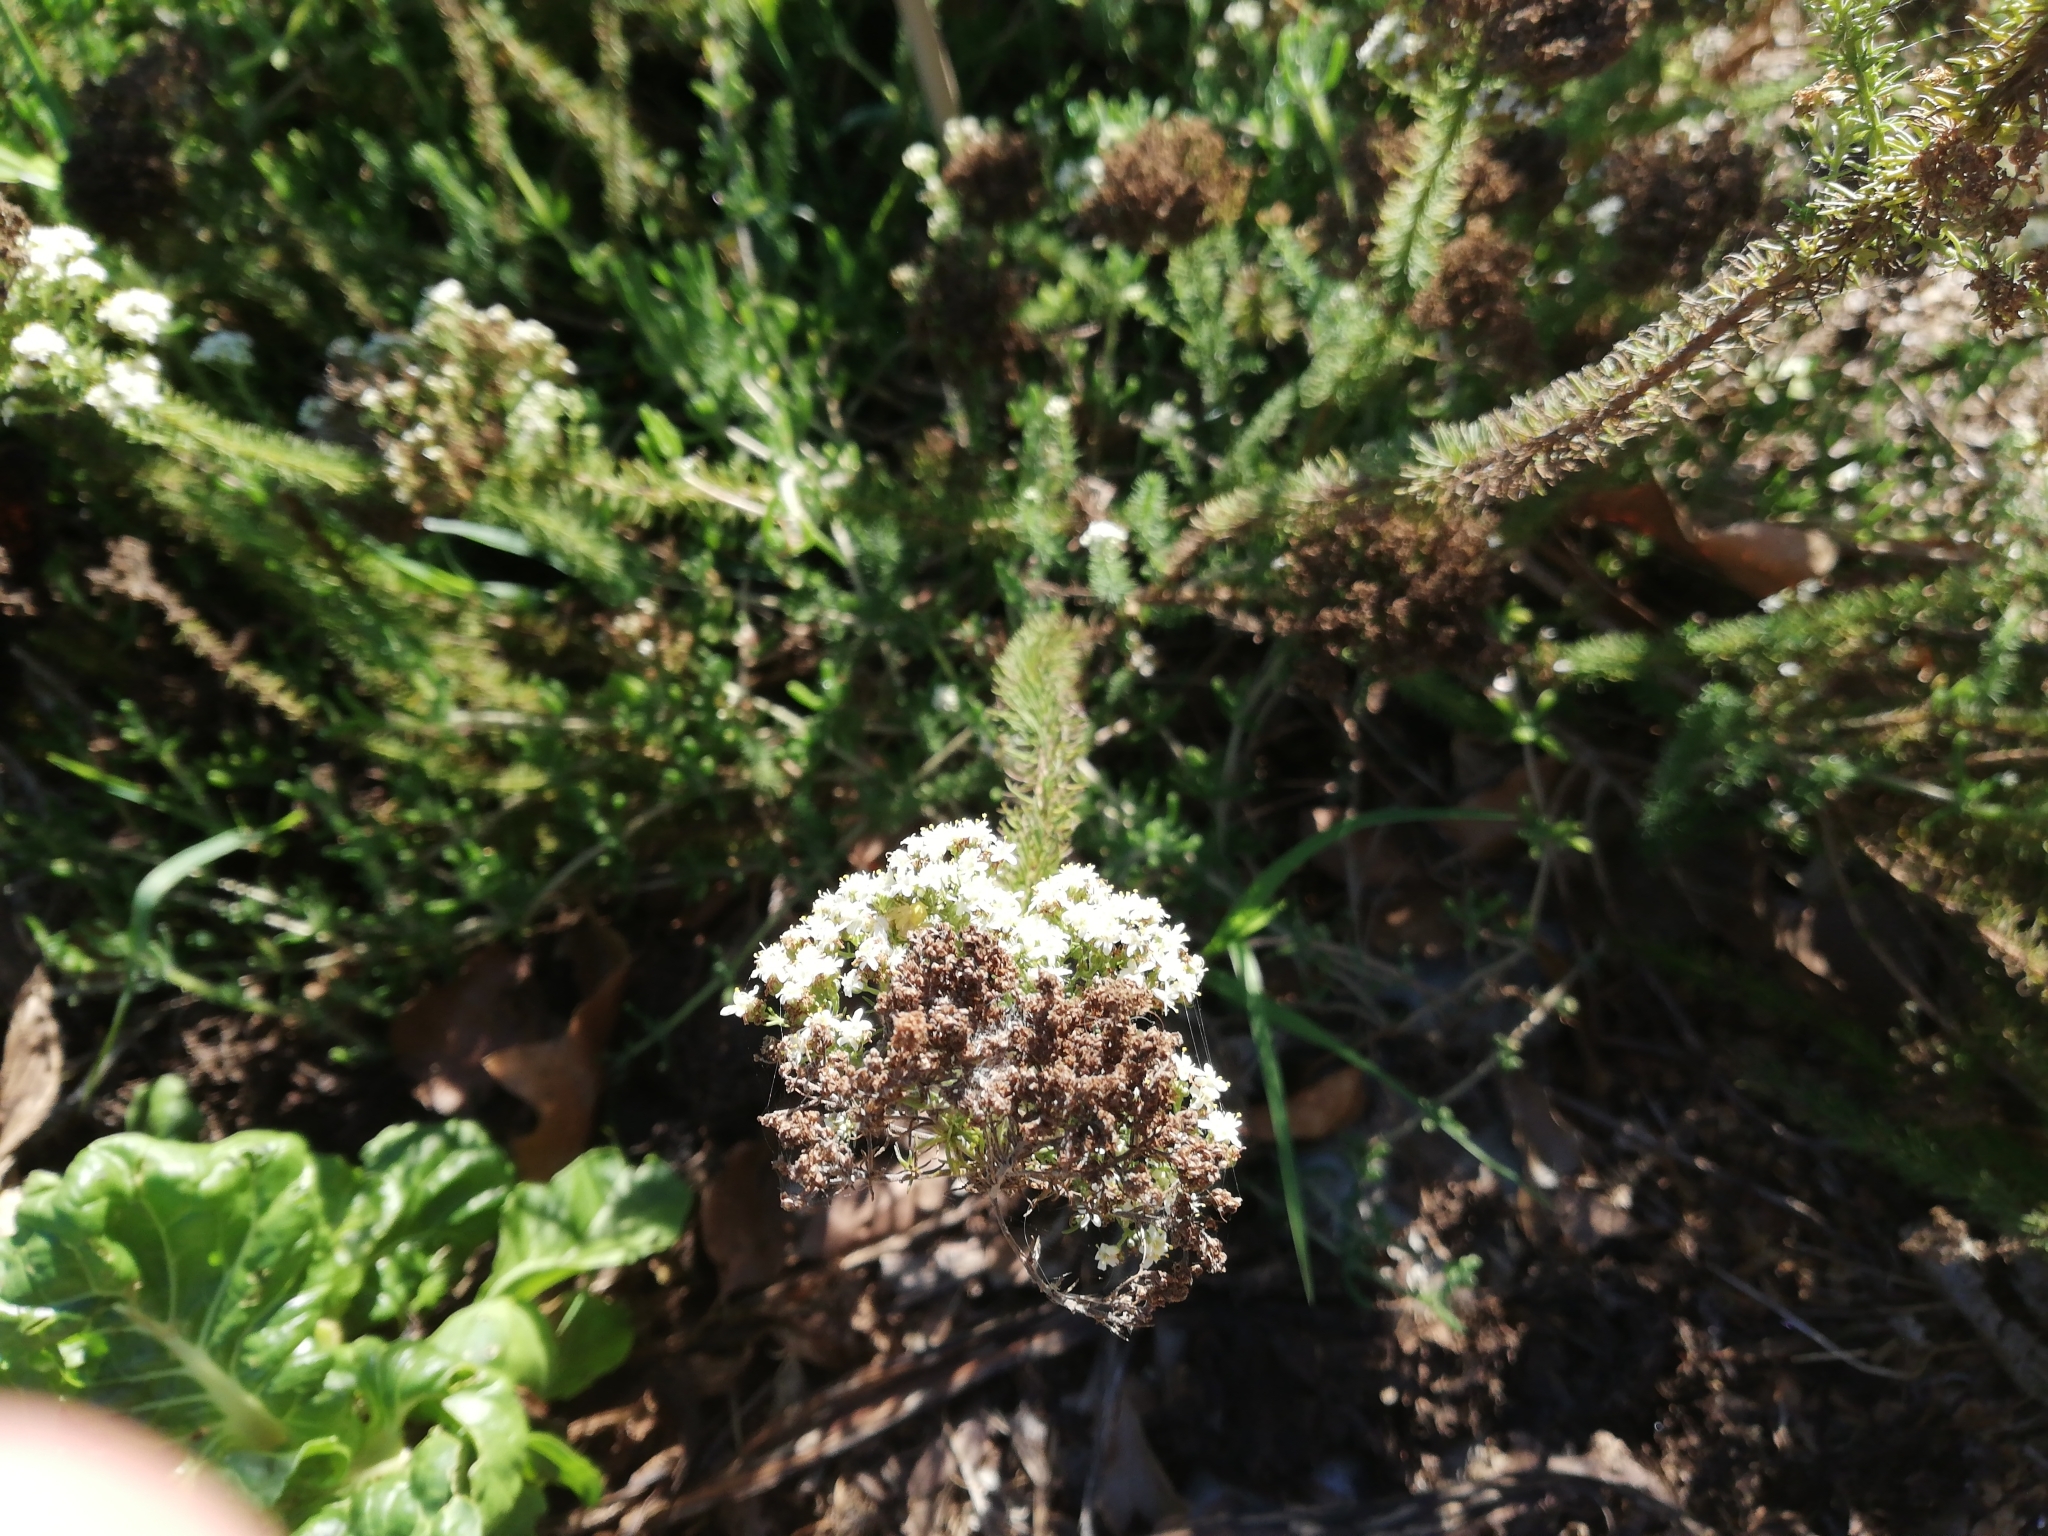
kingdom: Plantae
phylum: Tracheophyta
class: Magnoliopsida
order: Lamiales
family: Scrophulariaceae
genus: Selago
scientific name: Selago corymbosa
